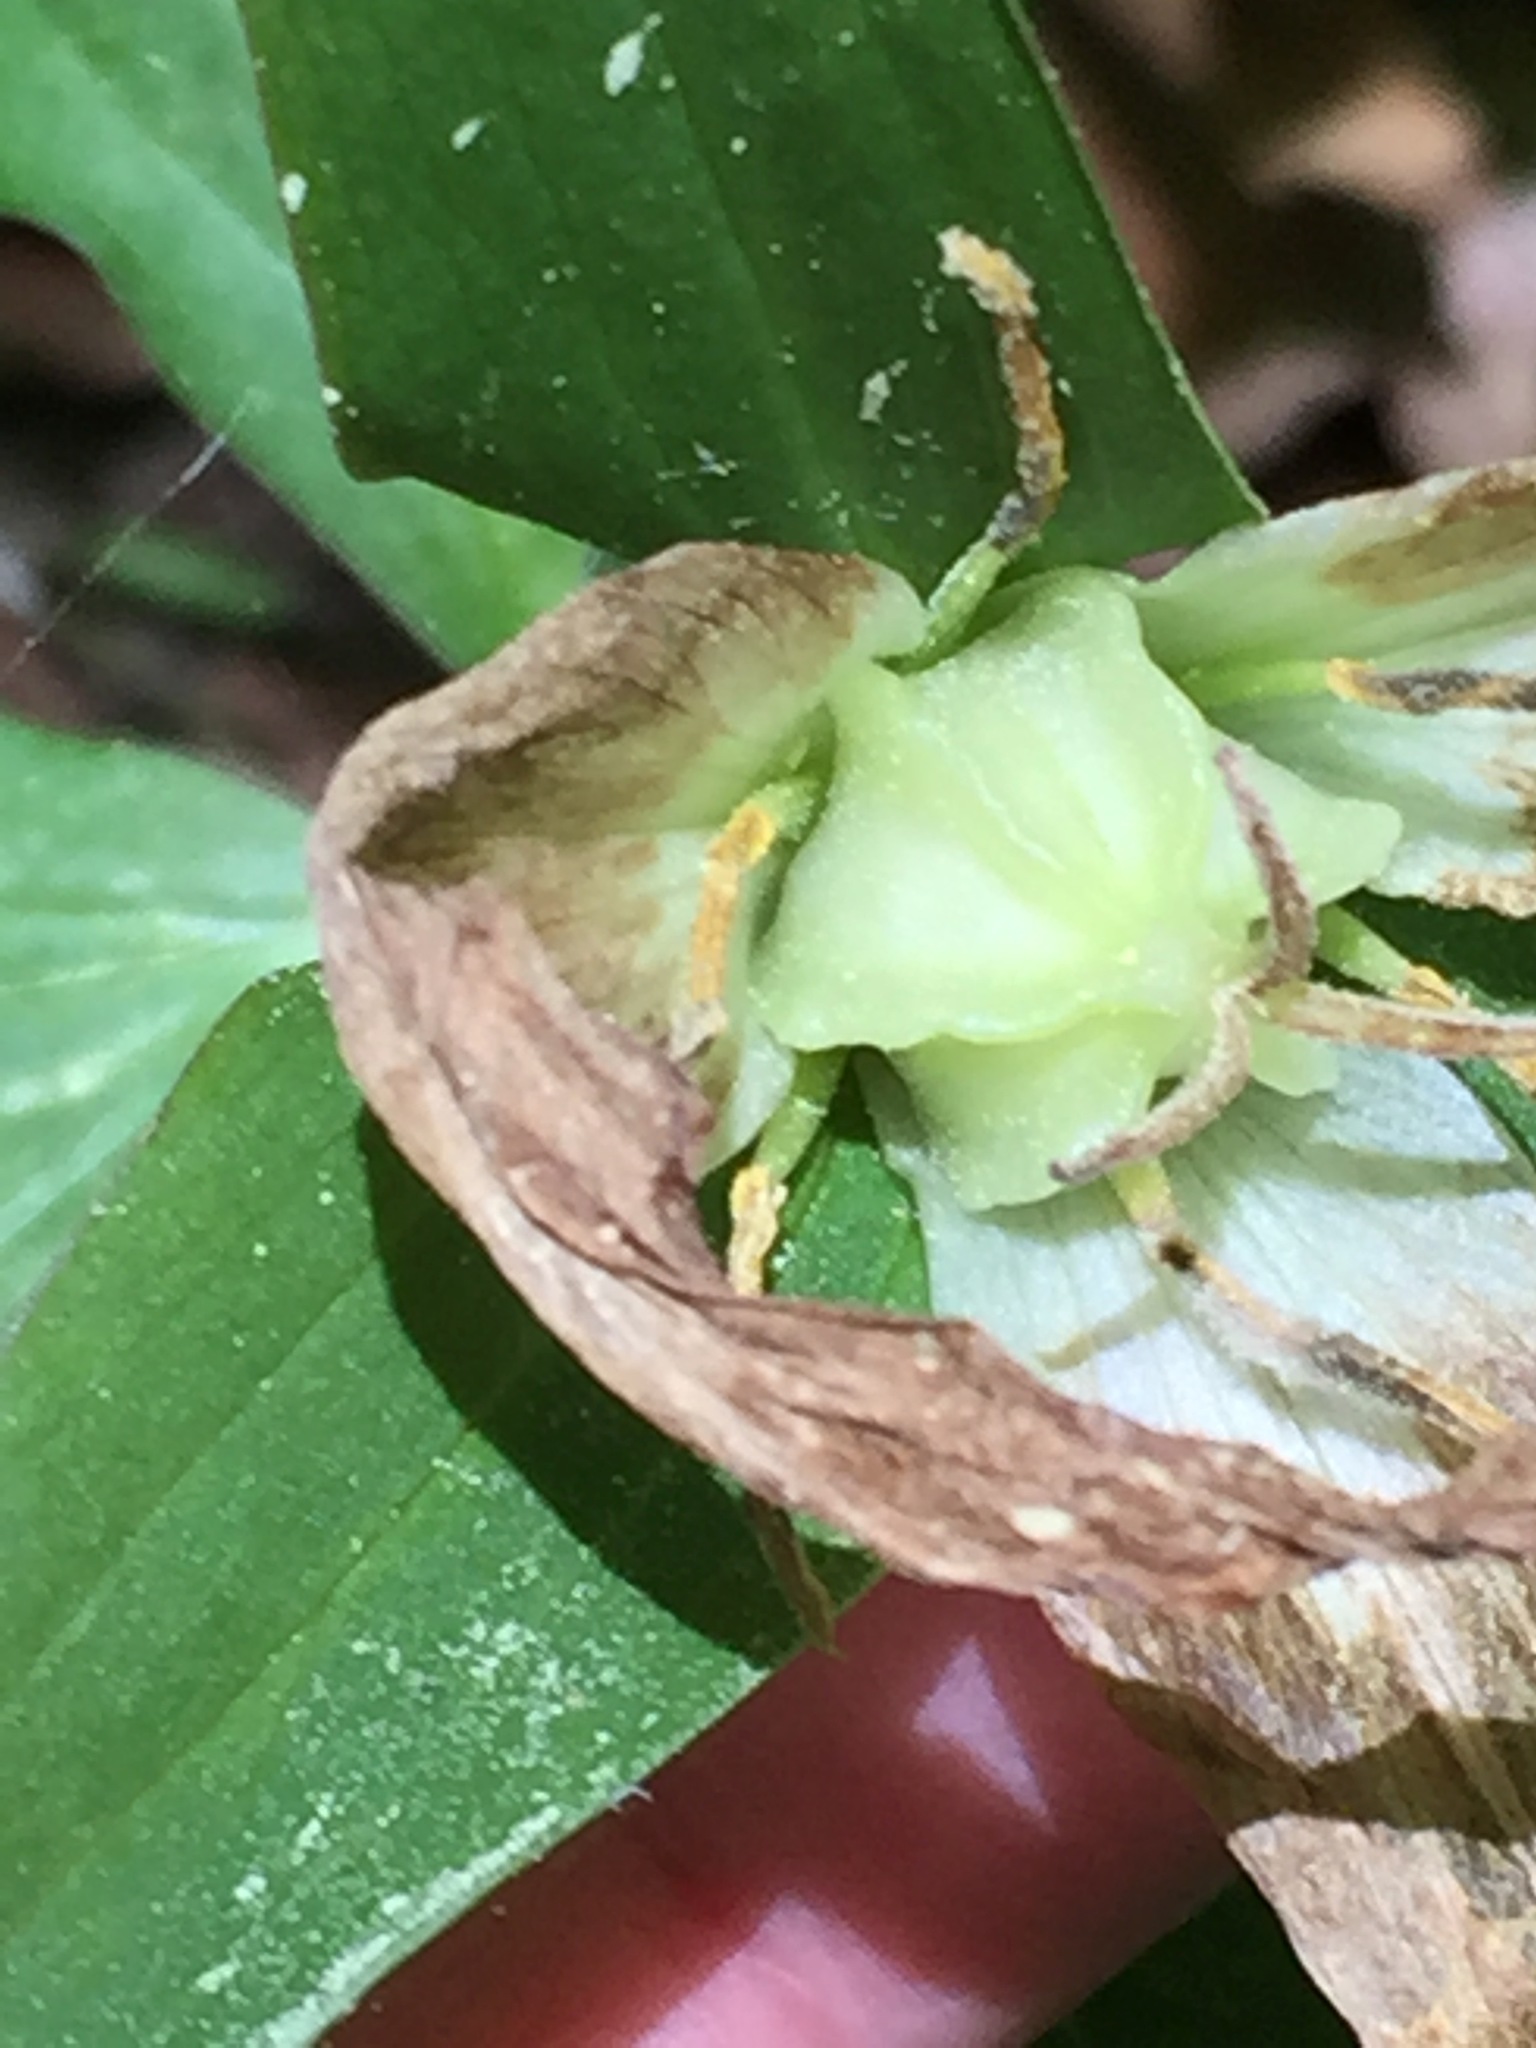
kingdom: Plantae
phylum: Tracheophyta
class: Liliopsida
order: Liliales
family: Melanthiaceae
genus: Trillium
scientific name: Trillium grandiflorum
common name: Great white trillium
